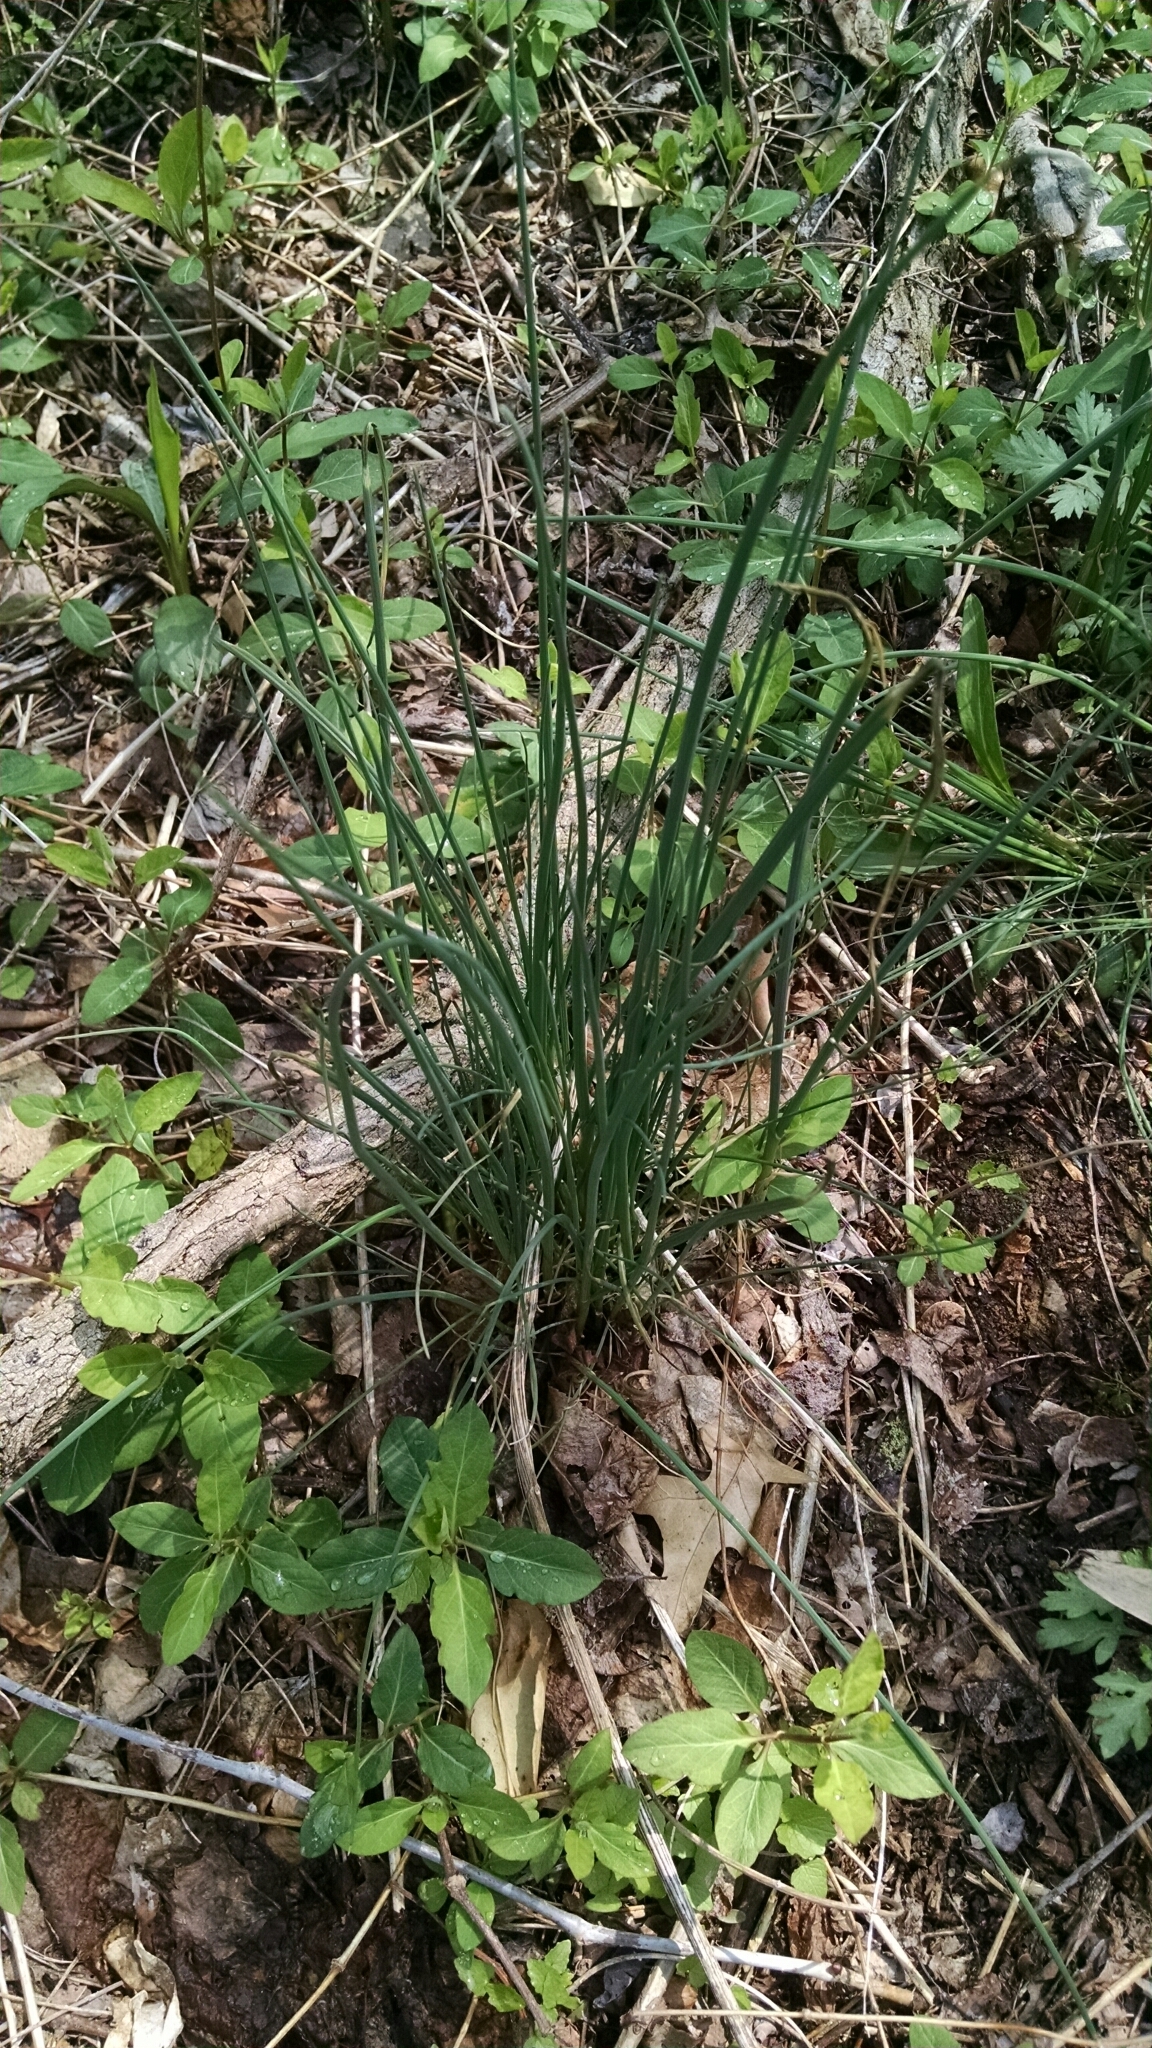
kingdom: Plantae
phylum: Tracheophyta
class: Liliopsida
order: Asparagales
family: Amaryllidaceae
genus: Allium
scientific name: Allium vineale
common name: Crow garlic
